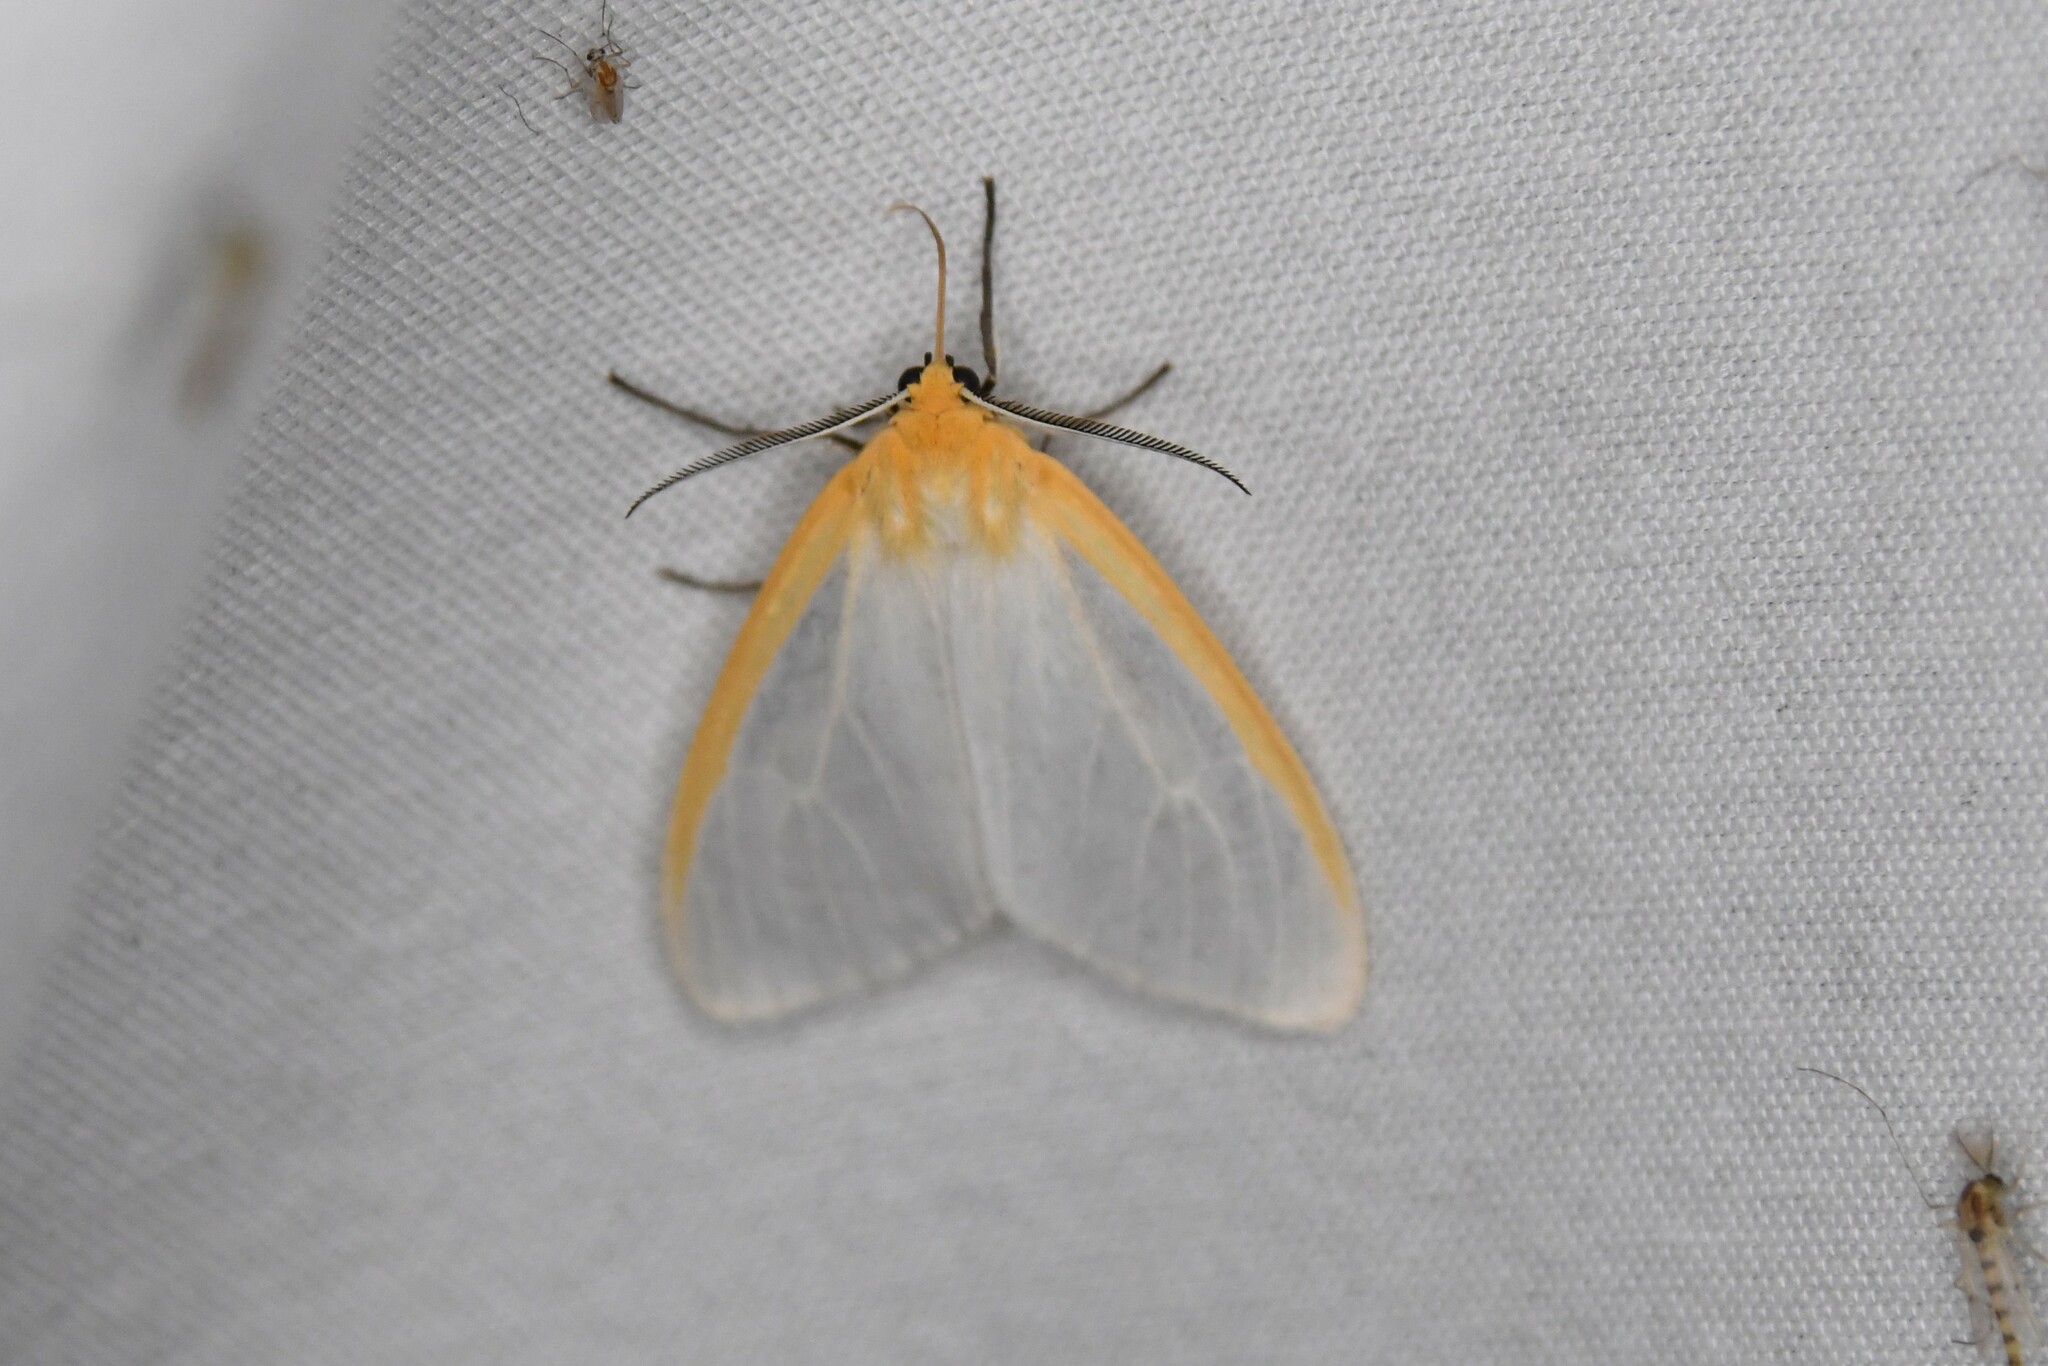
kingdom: Animalia
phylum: Arthropoda
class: Insecta
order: Lepidoptera
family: Erebidae
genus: Cycnia
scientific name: Cycnia tenera
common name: Delicate cycnia moth
